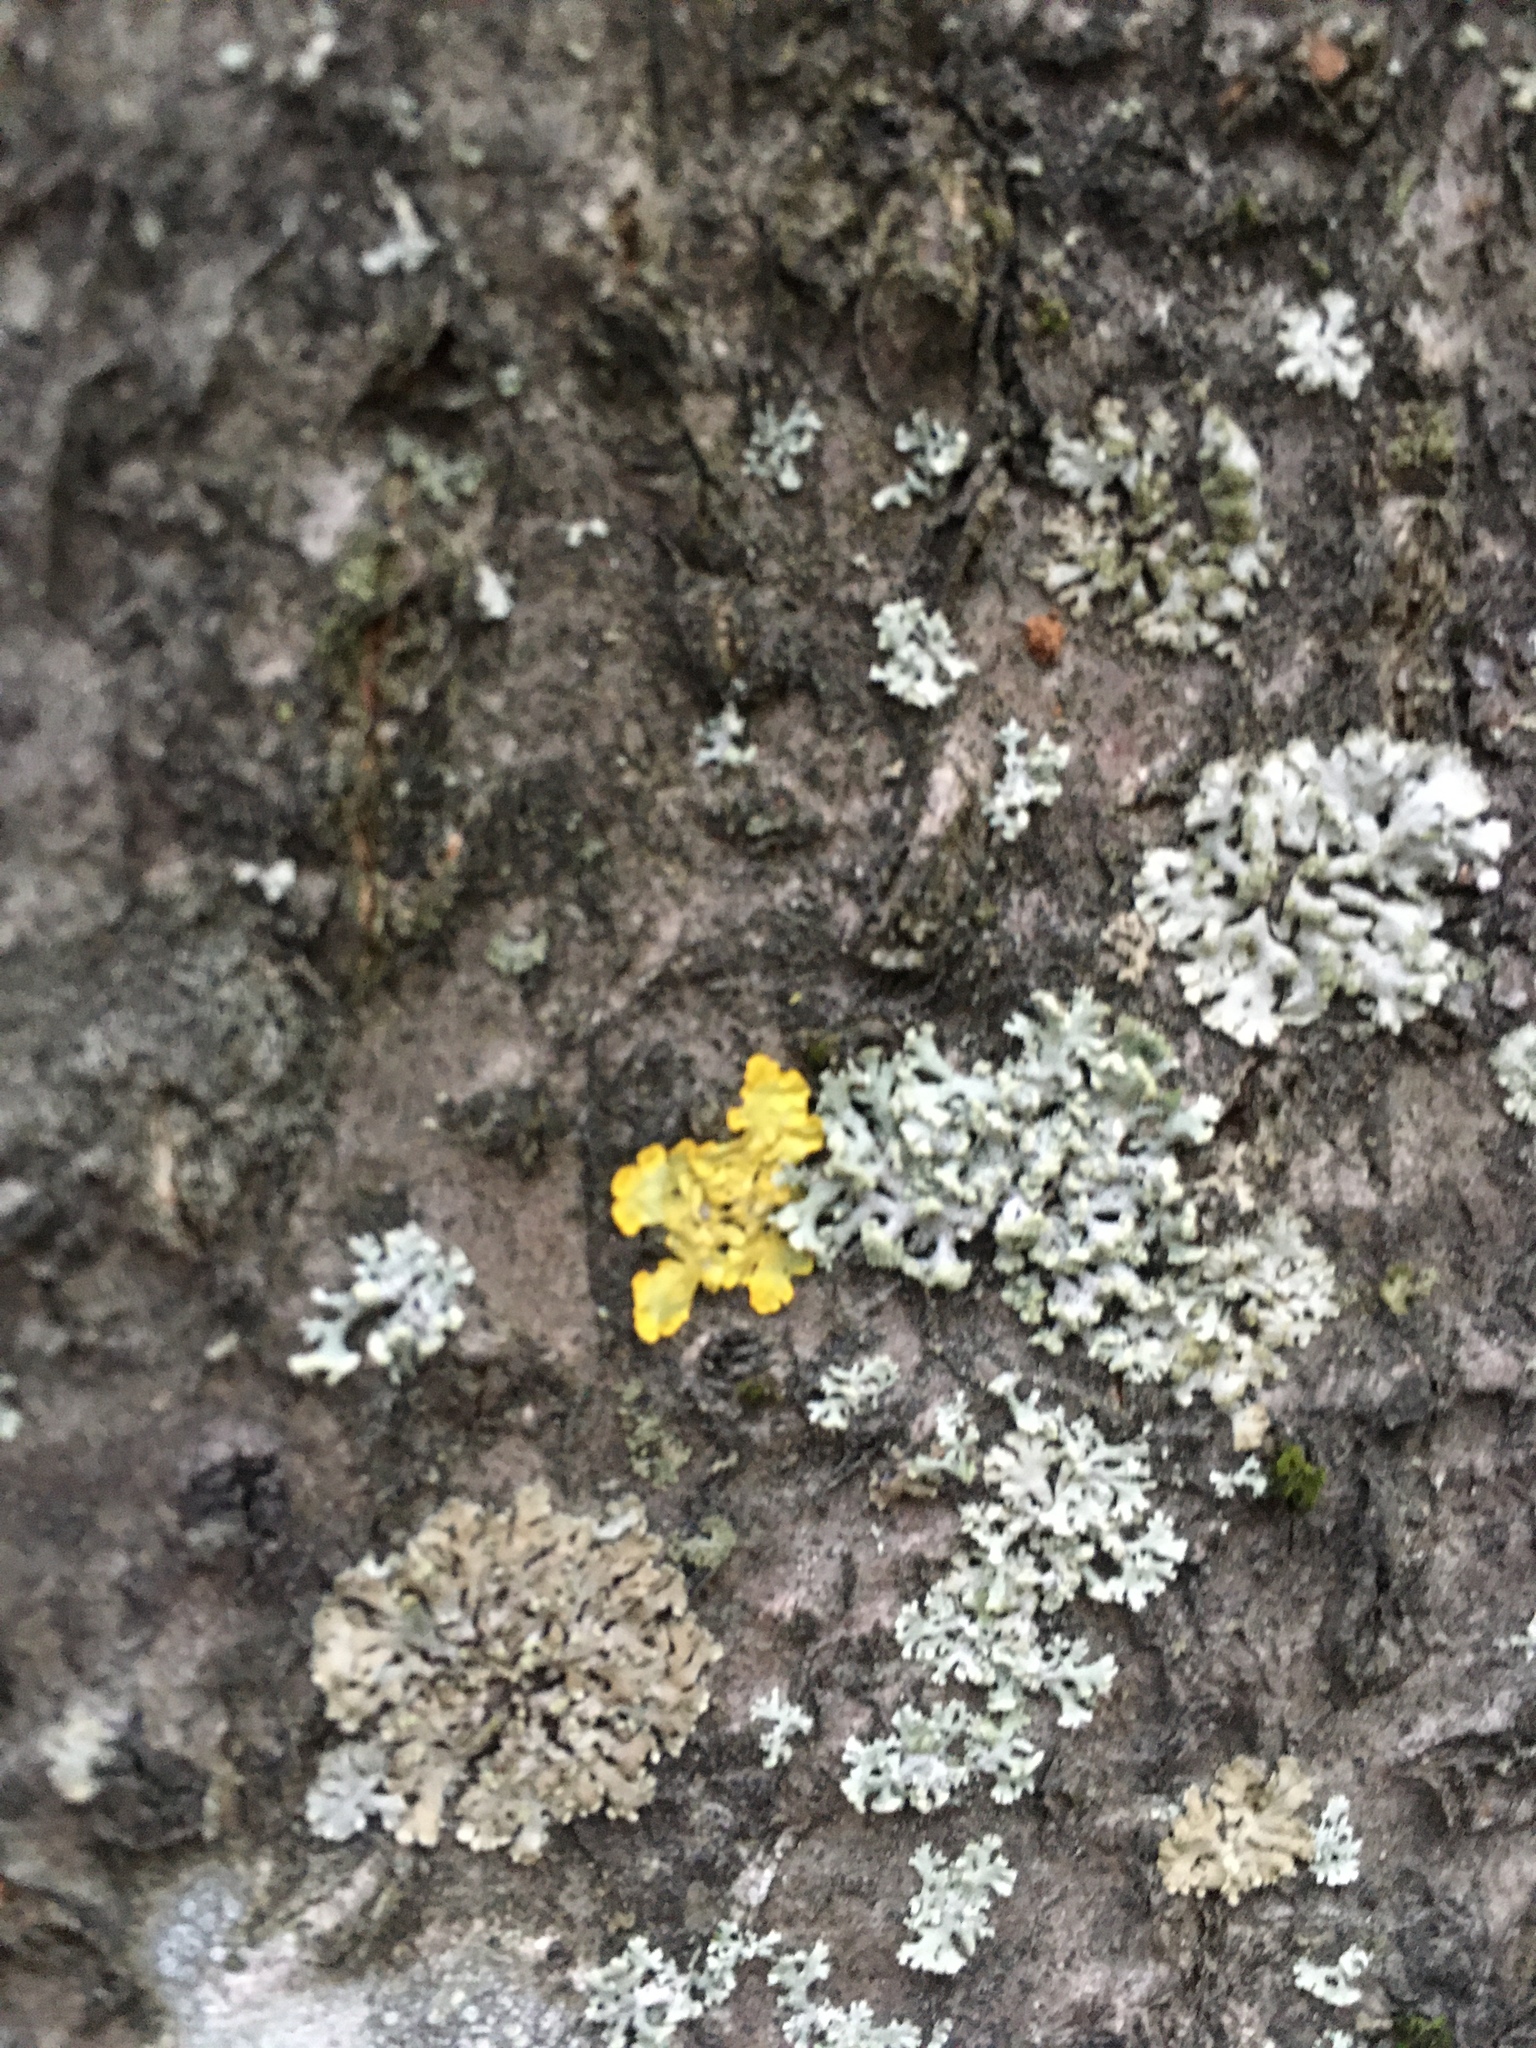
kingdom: Fungi
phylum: Ascomycota
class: Lecanoromycetes
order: Teloschistales
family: Teloschistaceae
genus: Xanthoria
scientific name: Xanthoria parietina
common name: Common orange lichen
